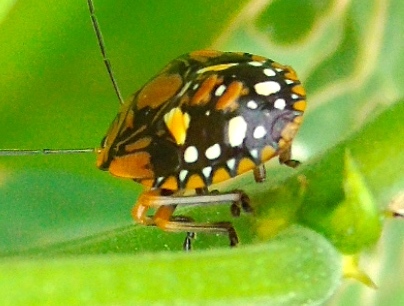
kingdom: Animalia
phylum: Arthropoda
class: Insecta
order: Hemiptera
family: Pentatomidae
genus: Acrosternum
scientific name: Acrosternum marginatum
